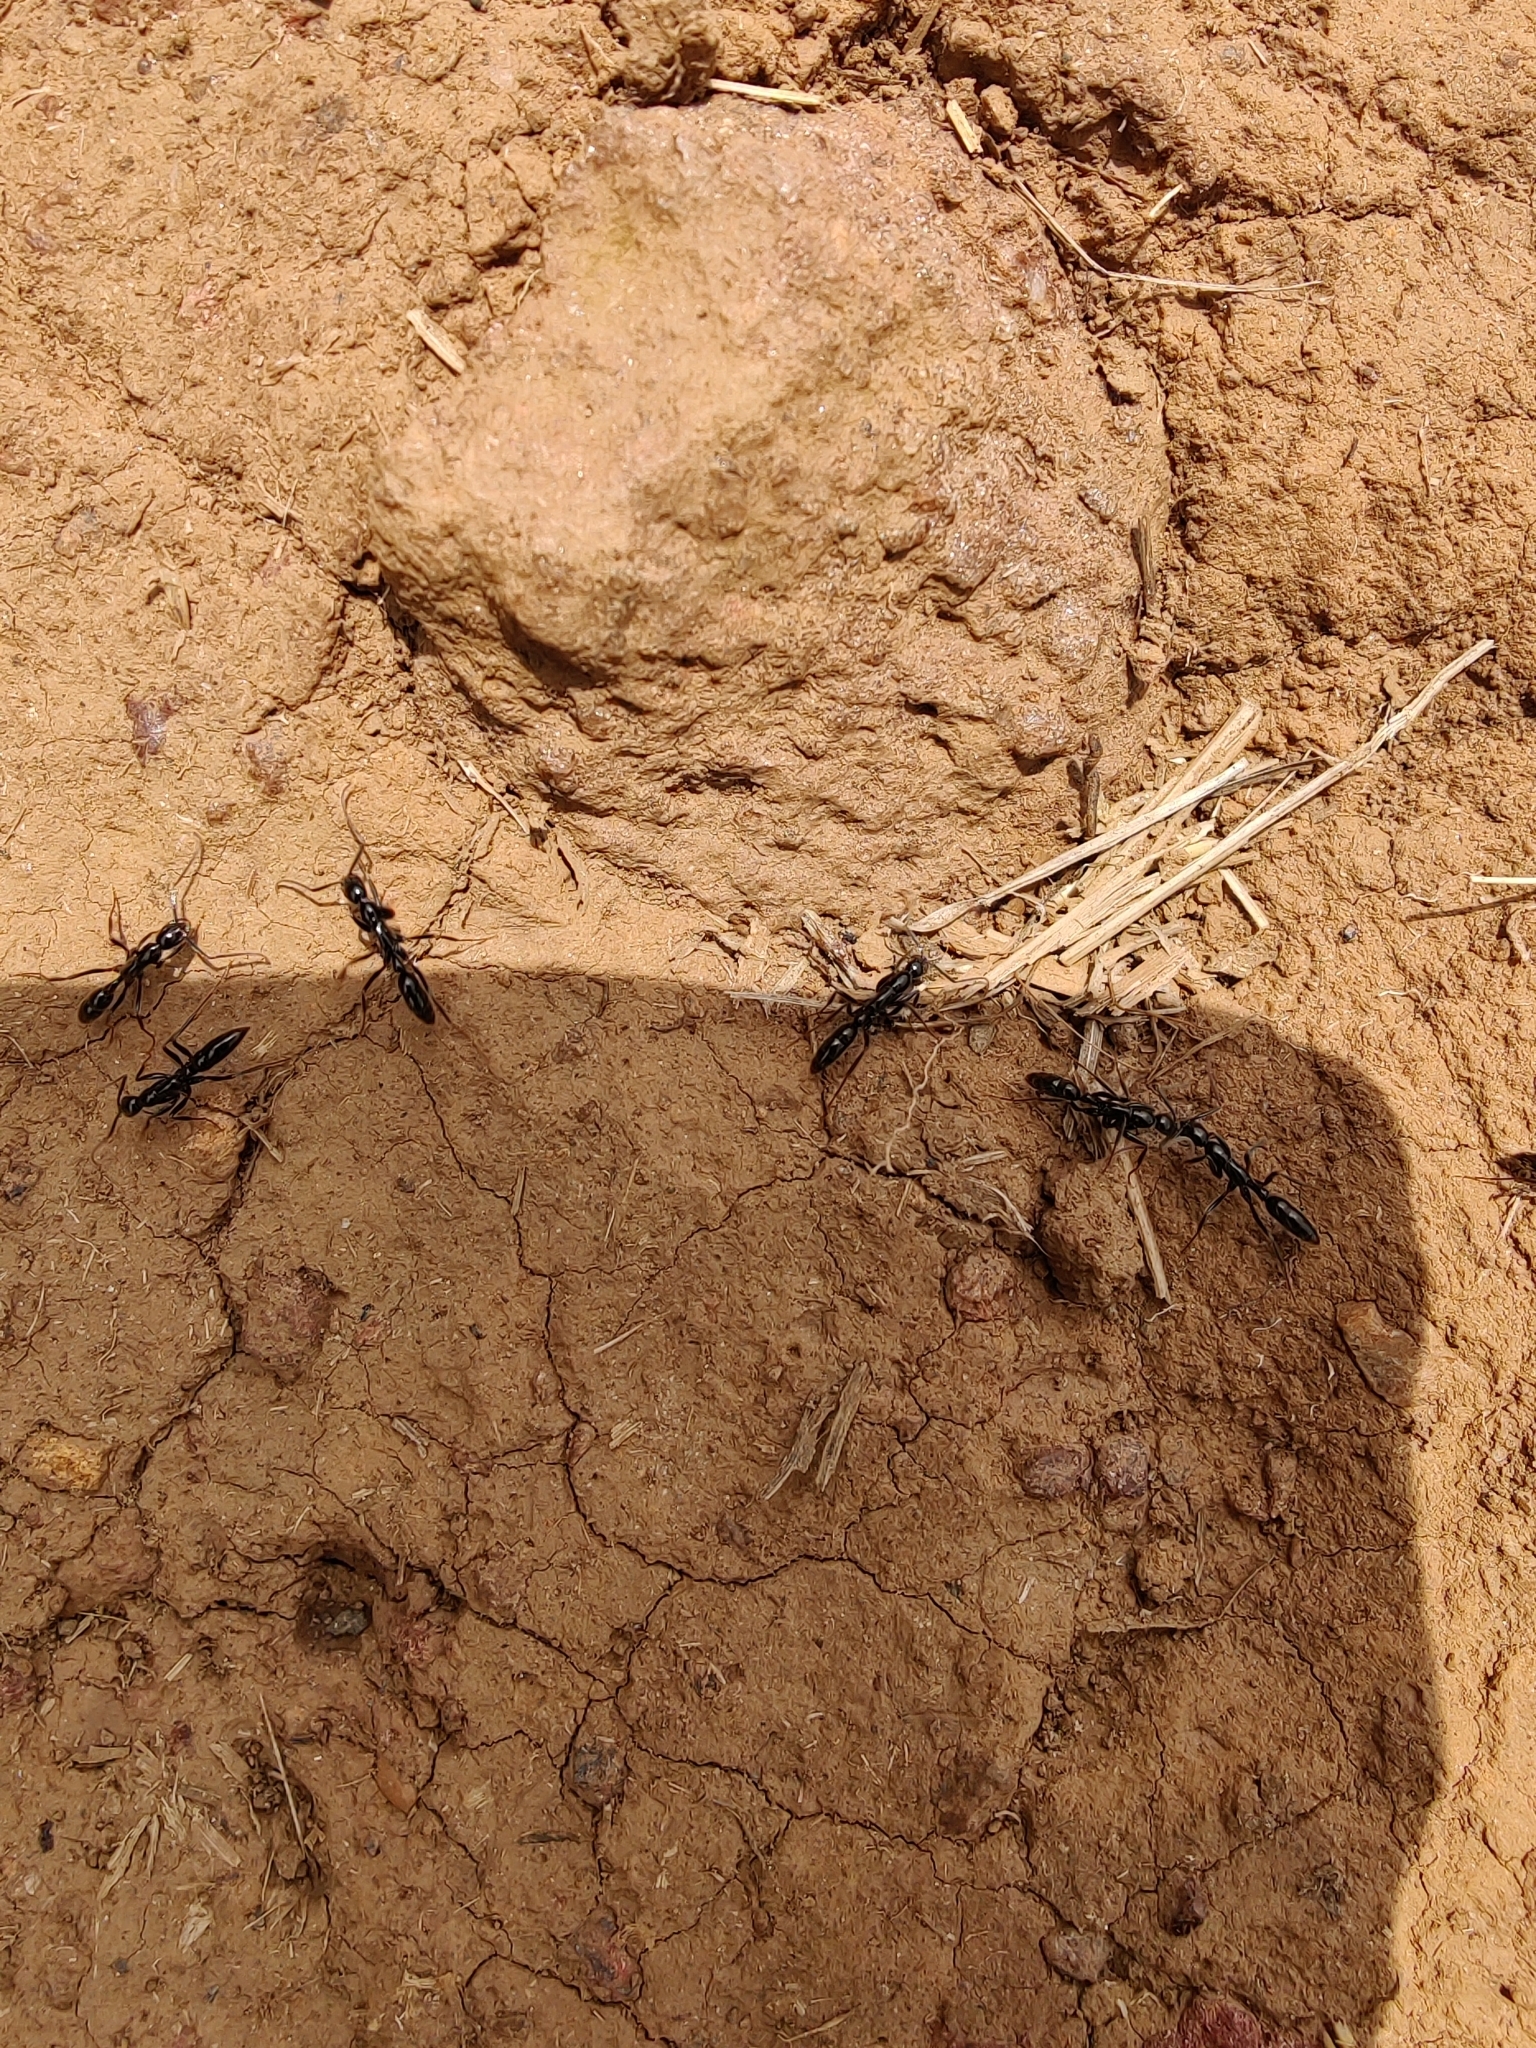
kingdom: Animalia
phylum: Arthropoda
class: Insecta
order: Hymenoptera
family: Formicidae
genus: Leptogenys
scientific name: Leptogenys chinensis
